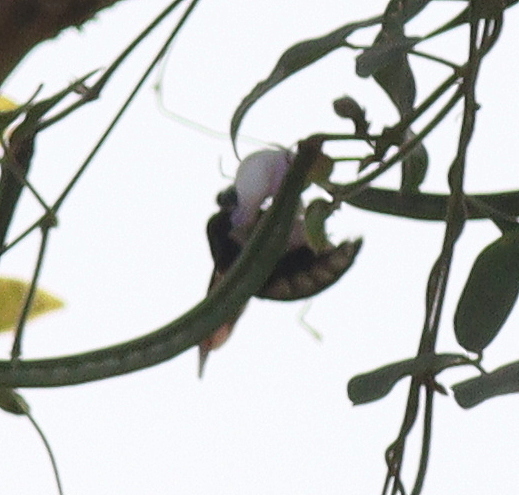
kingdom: Animalia
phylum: Arthropoda
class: Insecta
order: Hymenoptera
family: Apidae
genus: Xylocopa
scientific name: Xylocopa nigrita
